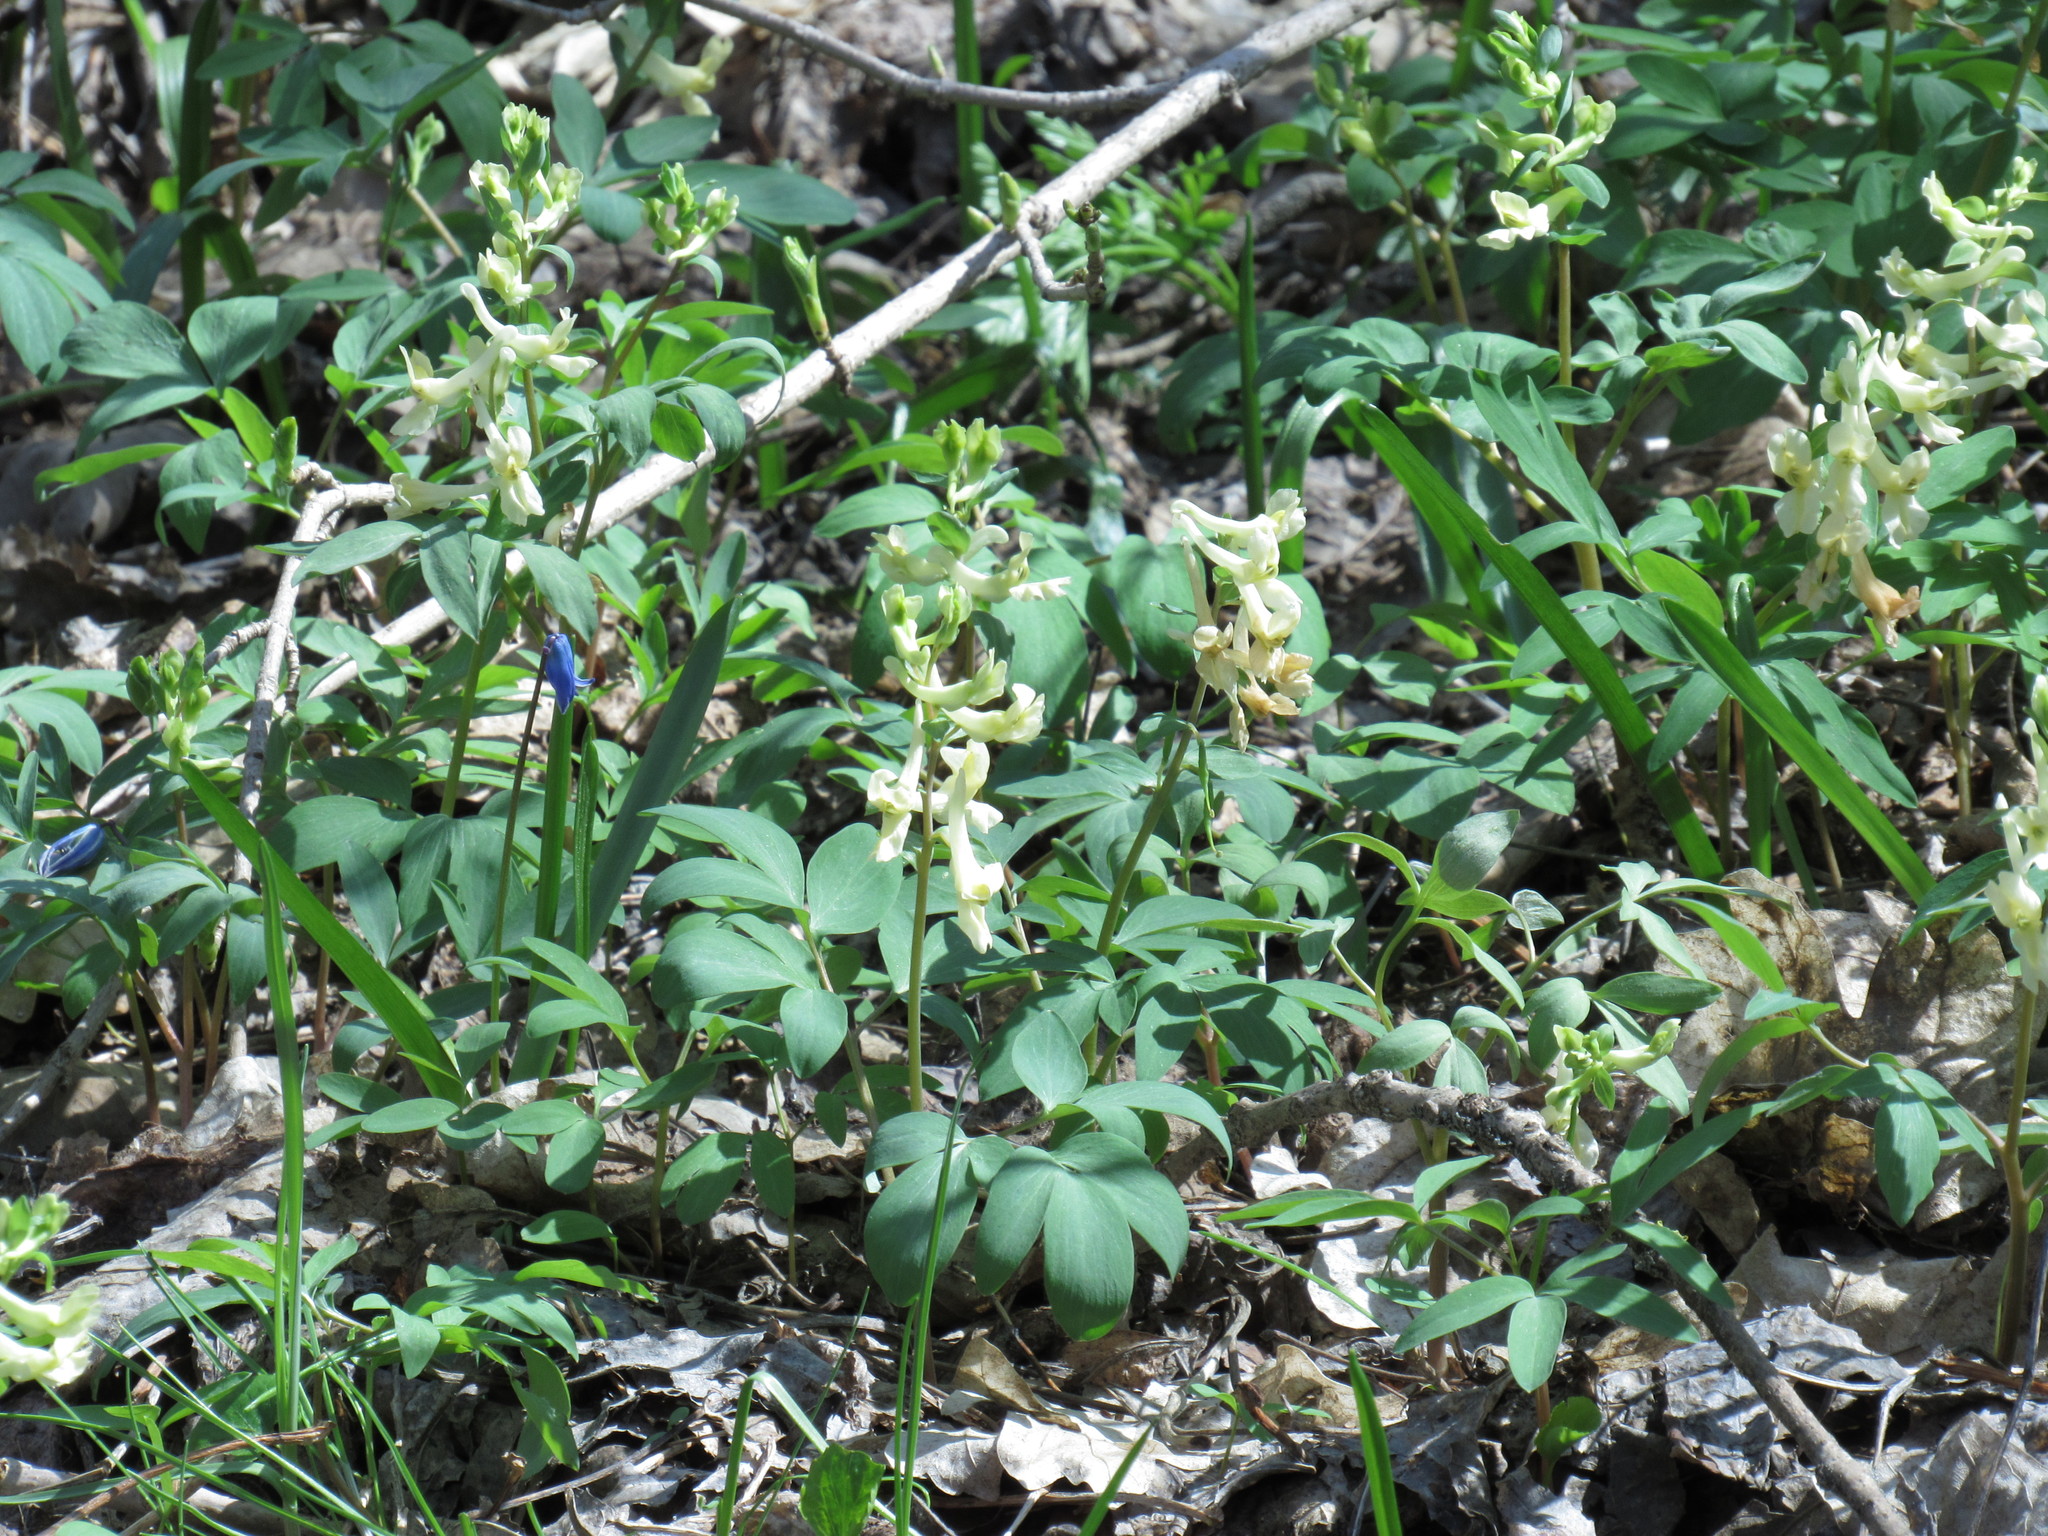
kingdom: Plantae
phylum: Tracheophyta
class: Magnoliopsida
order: Ranunculales
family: Papaveraceae
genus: Corydalis
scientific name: Corydalis cava
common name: Hollowroot
